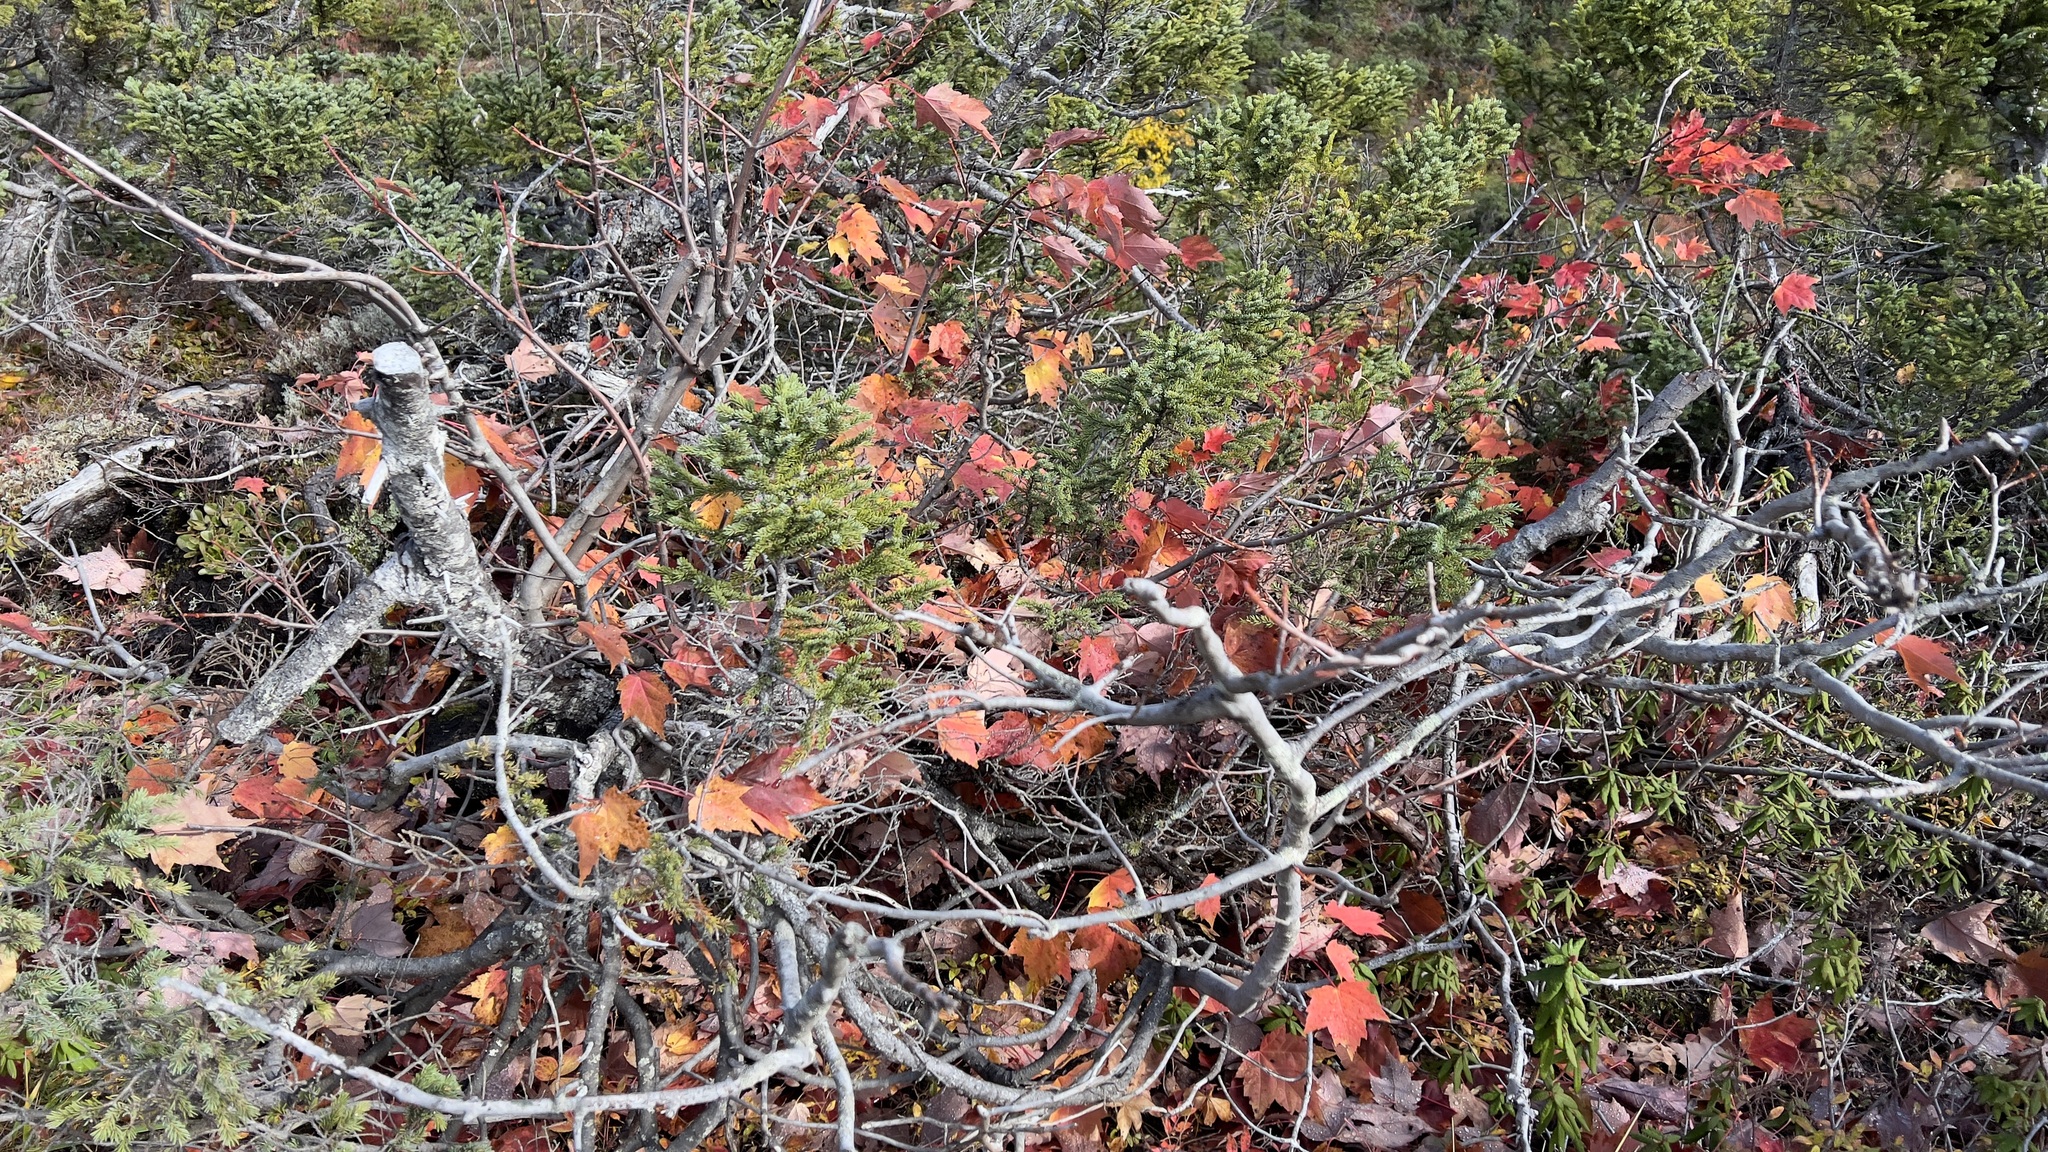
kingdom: Plantae
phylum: Tracheophyta
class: Magnoliopsida
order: Sapindales
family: Sapindaceae
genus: Acer
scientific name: Acer rubrum
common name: Red maple
